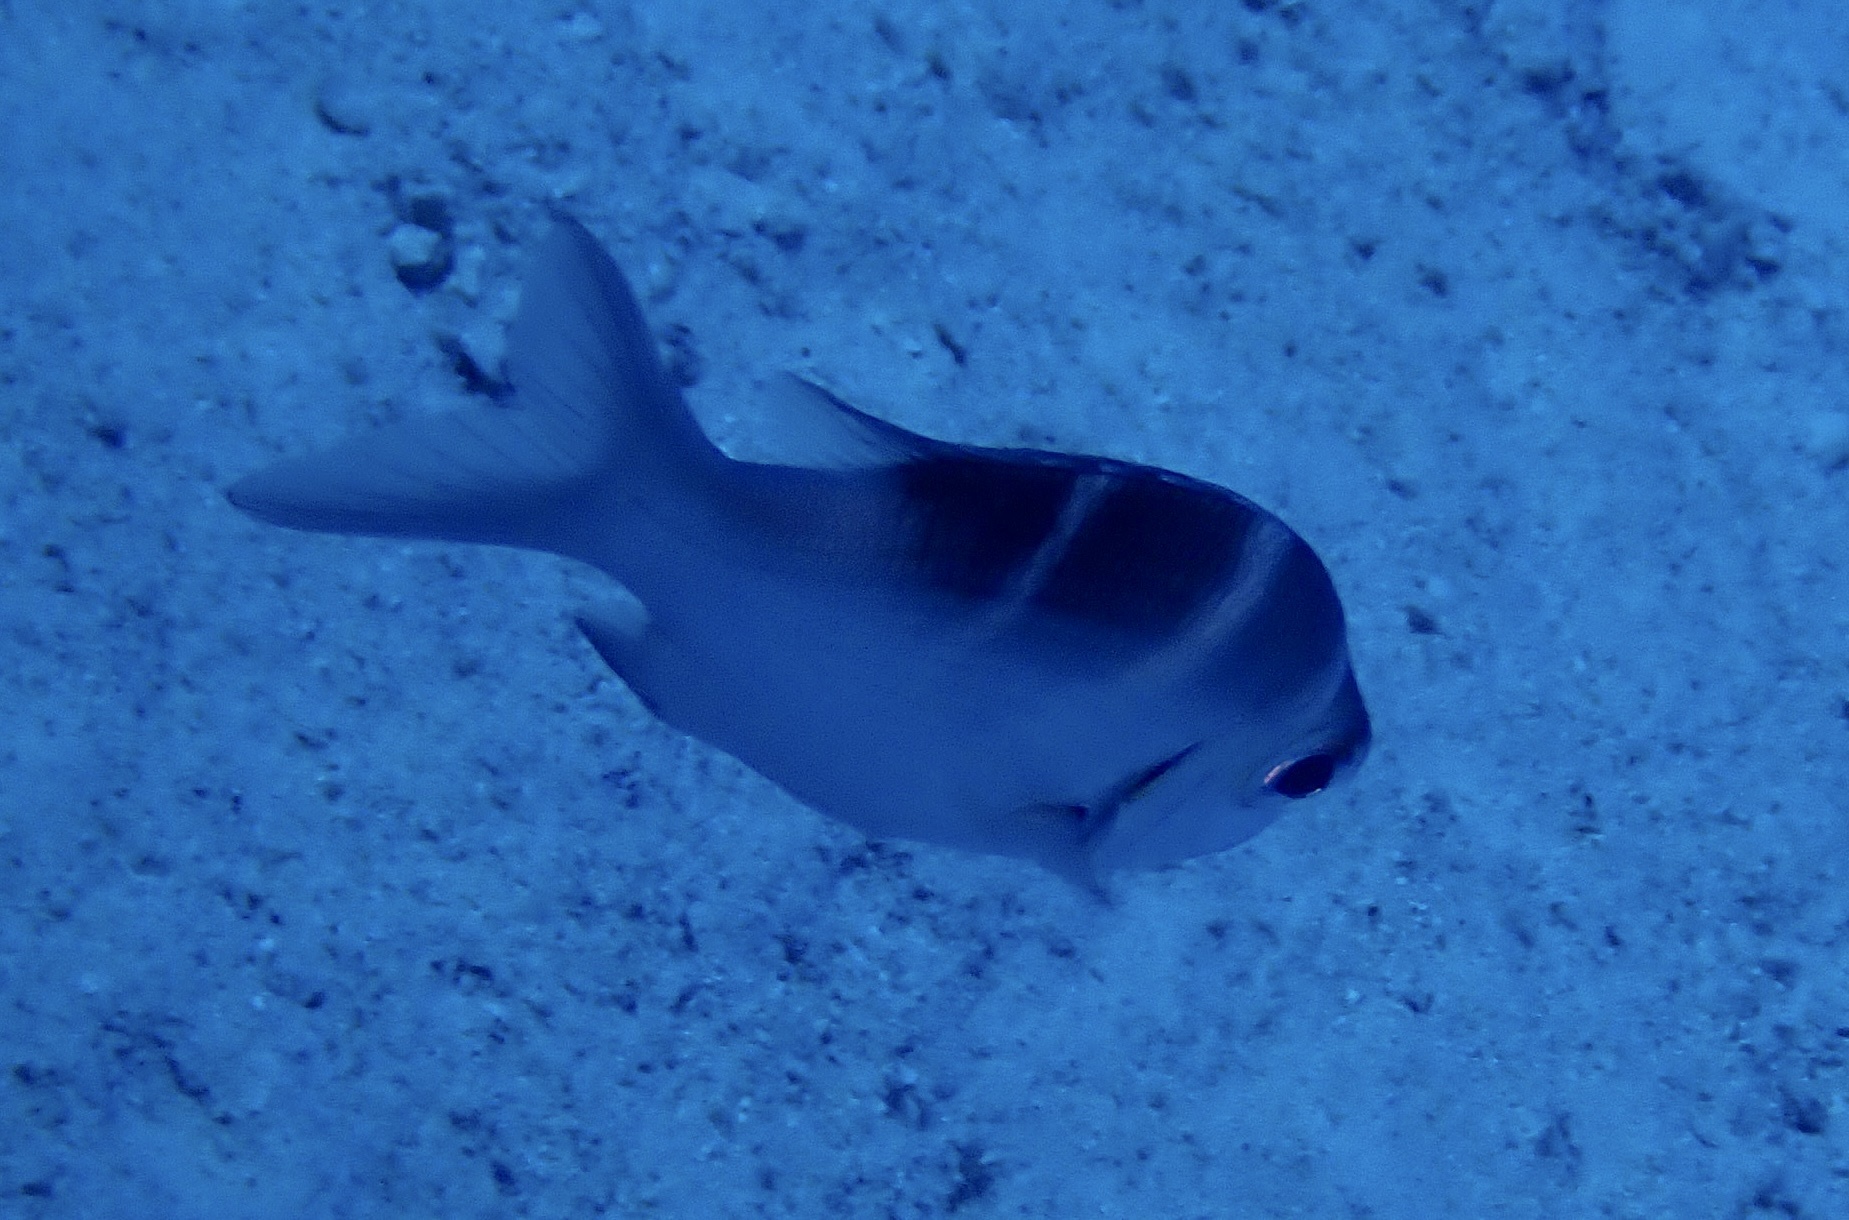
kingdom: Animalia
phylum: Chordata
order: Perciformes
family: Lethrinidae
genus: Monotaxis
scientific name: Monotaxis grandoculis
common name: Bigeye emperor
